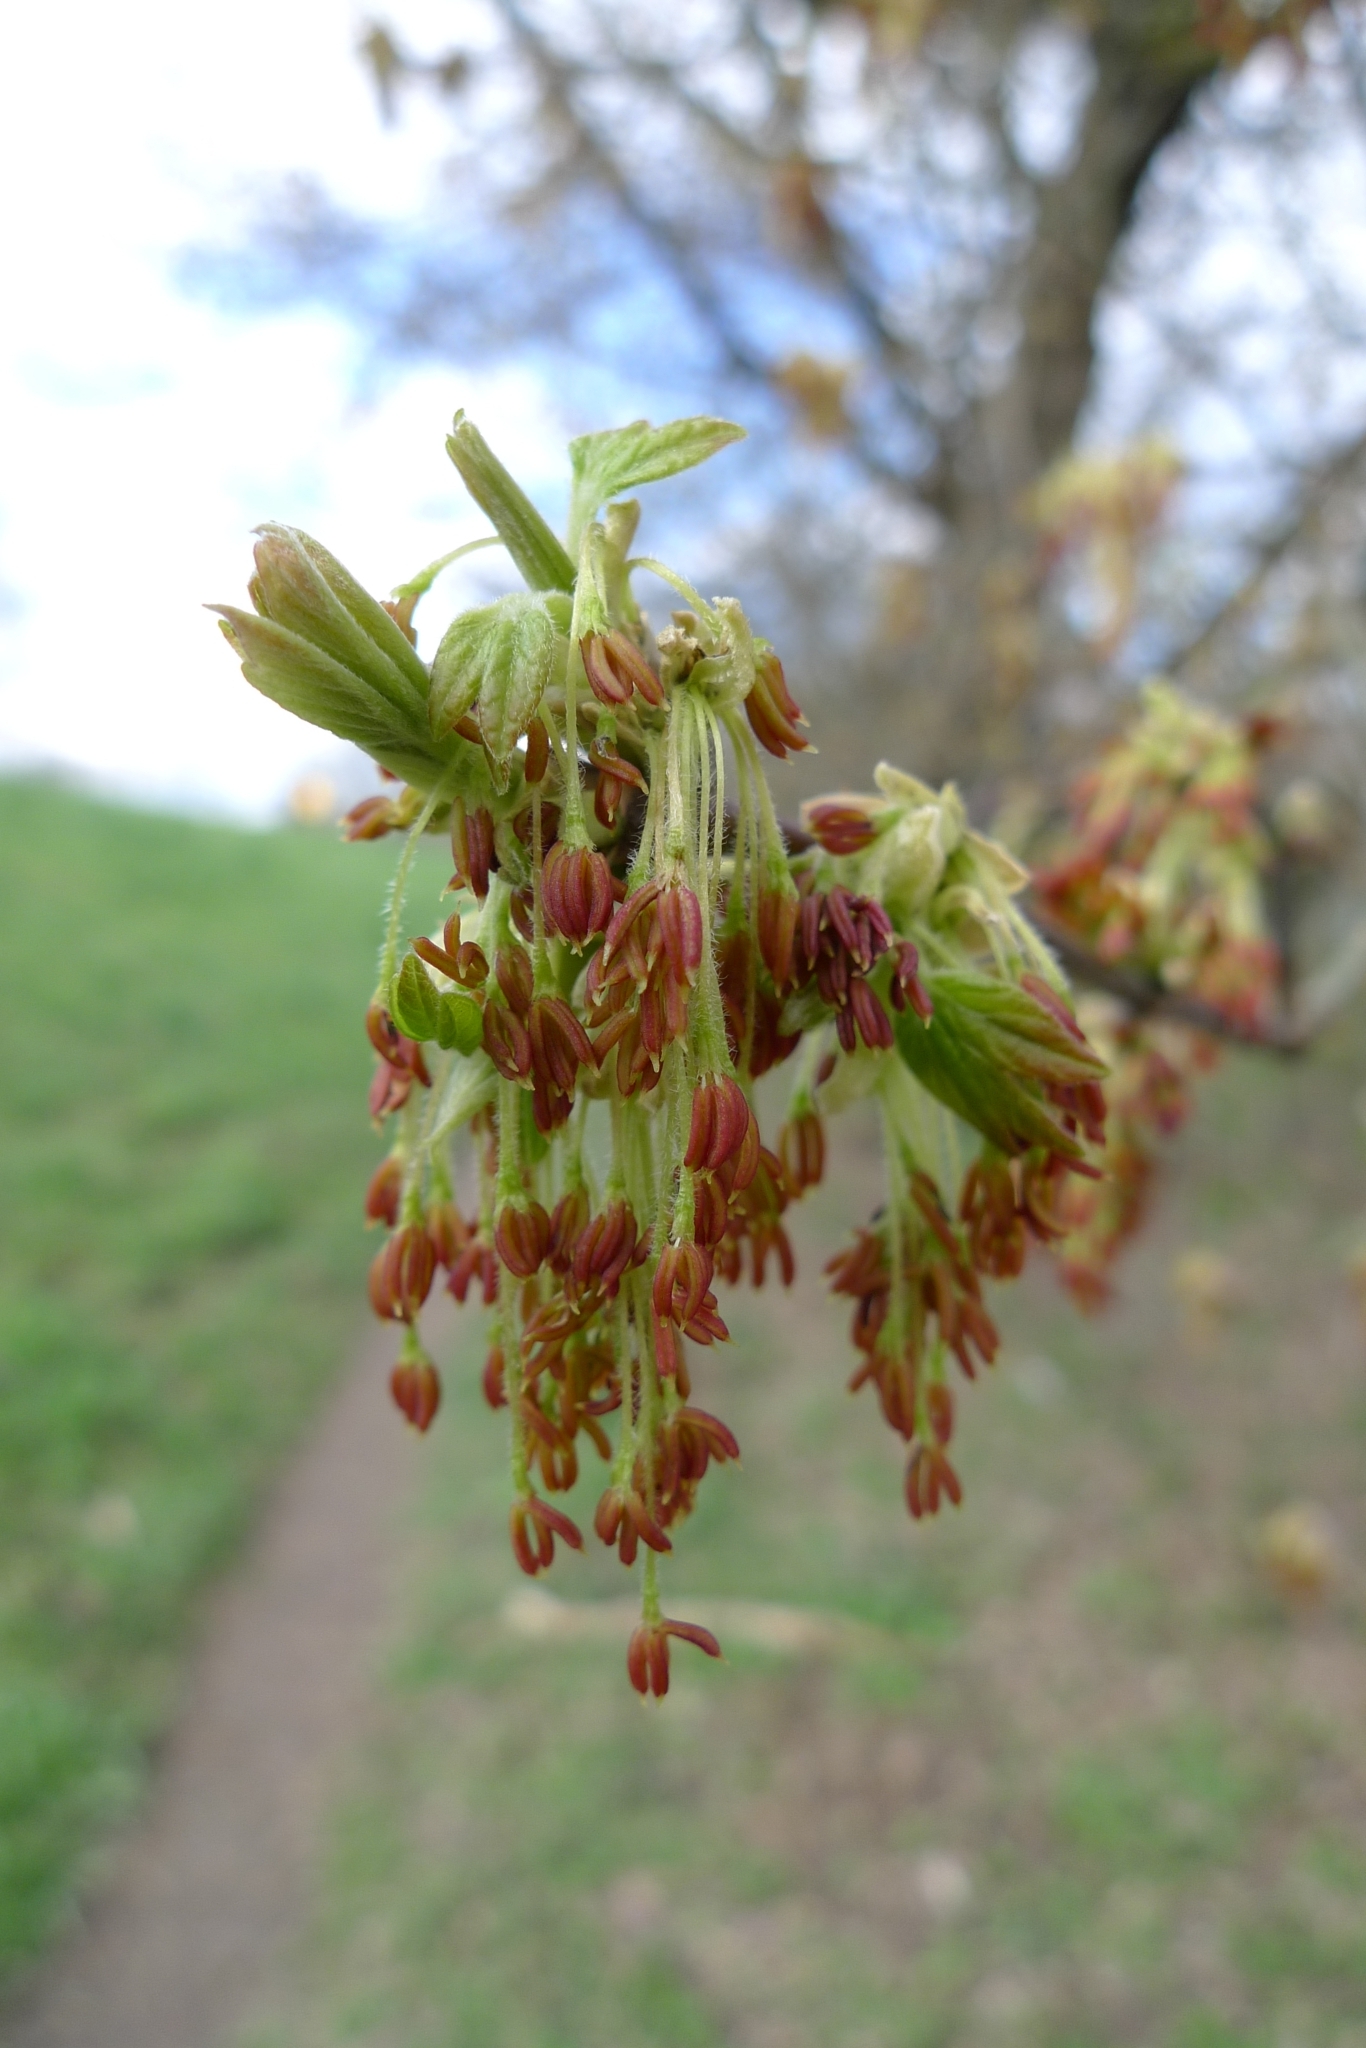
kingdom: Plantae
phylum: Tracheophyta
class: Magnoliopsida
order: Sapindales
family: Sapindaceae
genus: Acer
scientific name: Acer negundo
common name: Ashleaf maple
